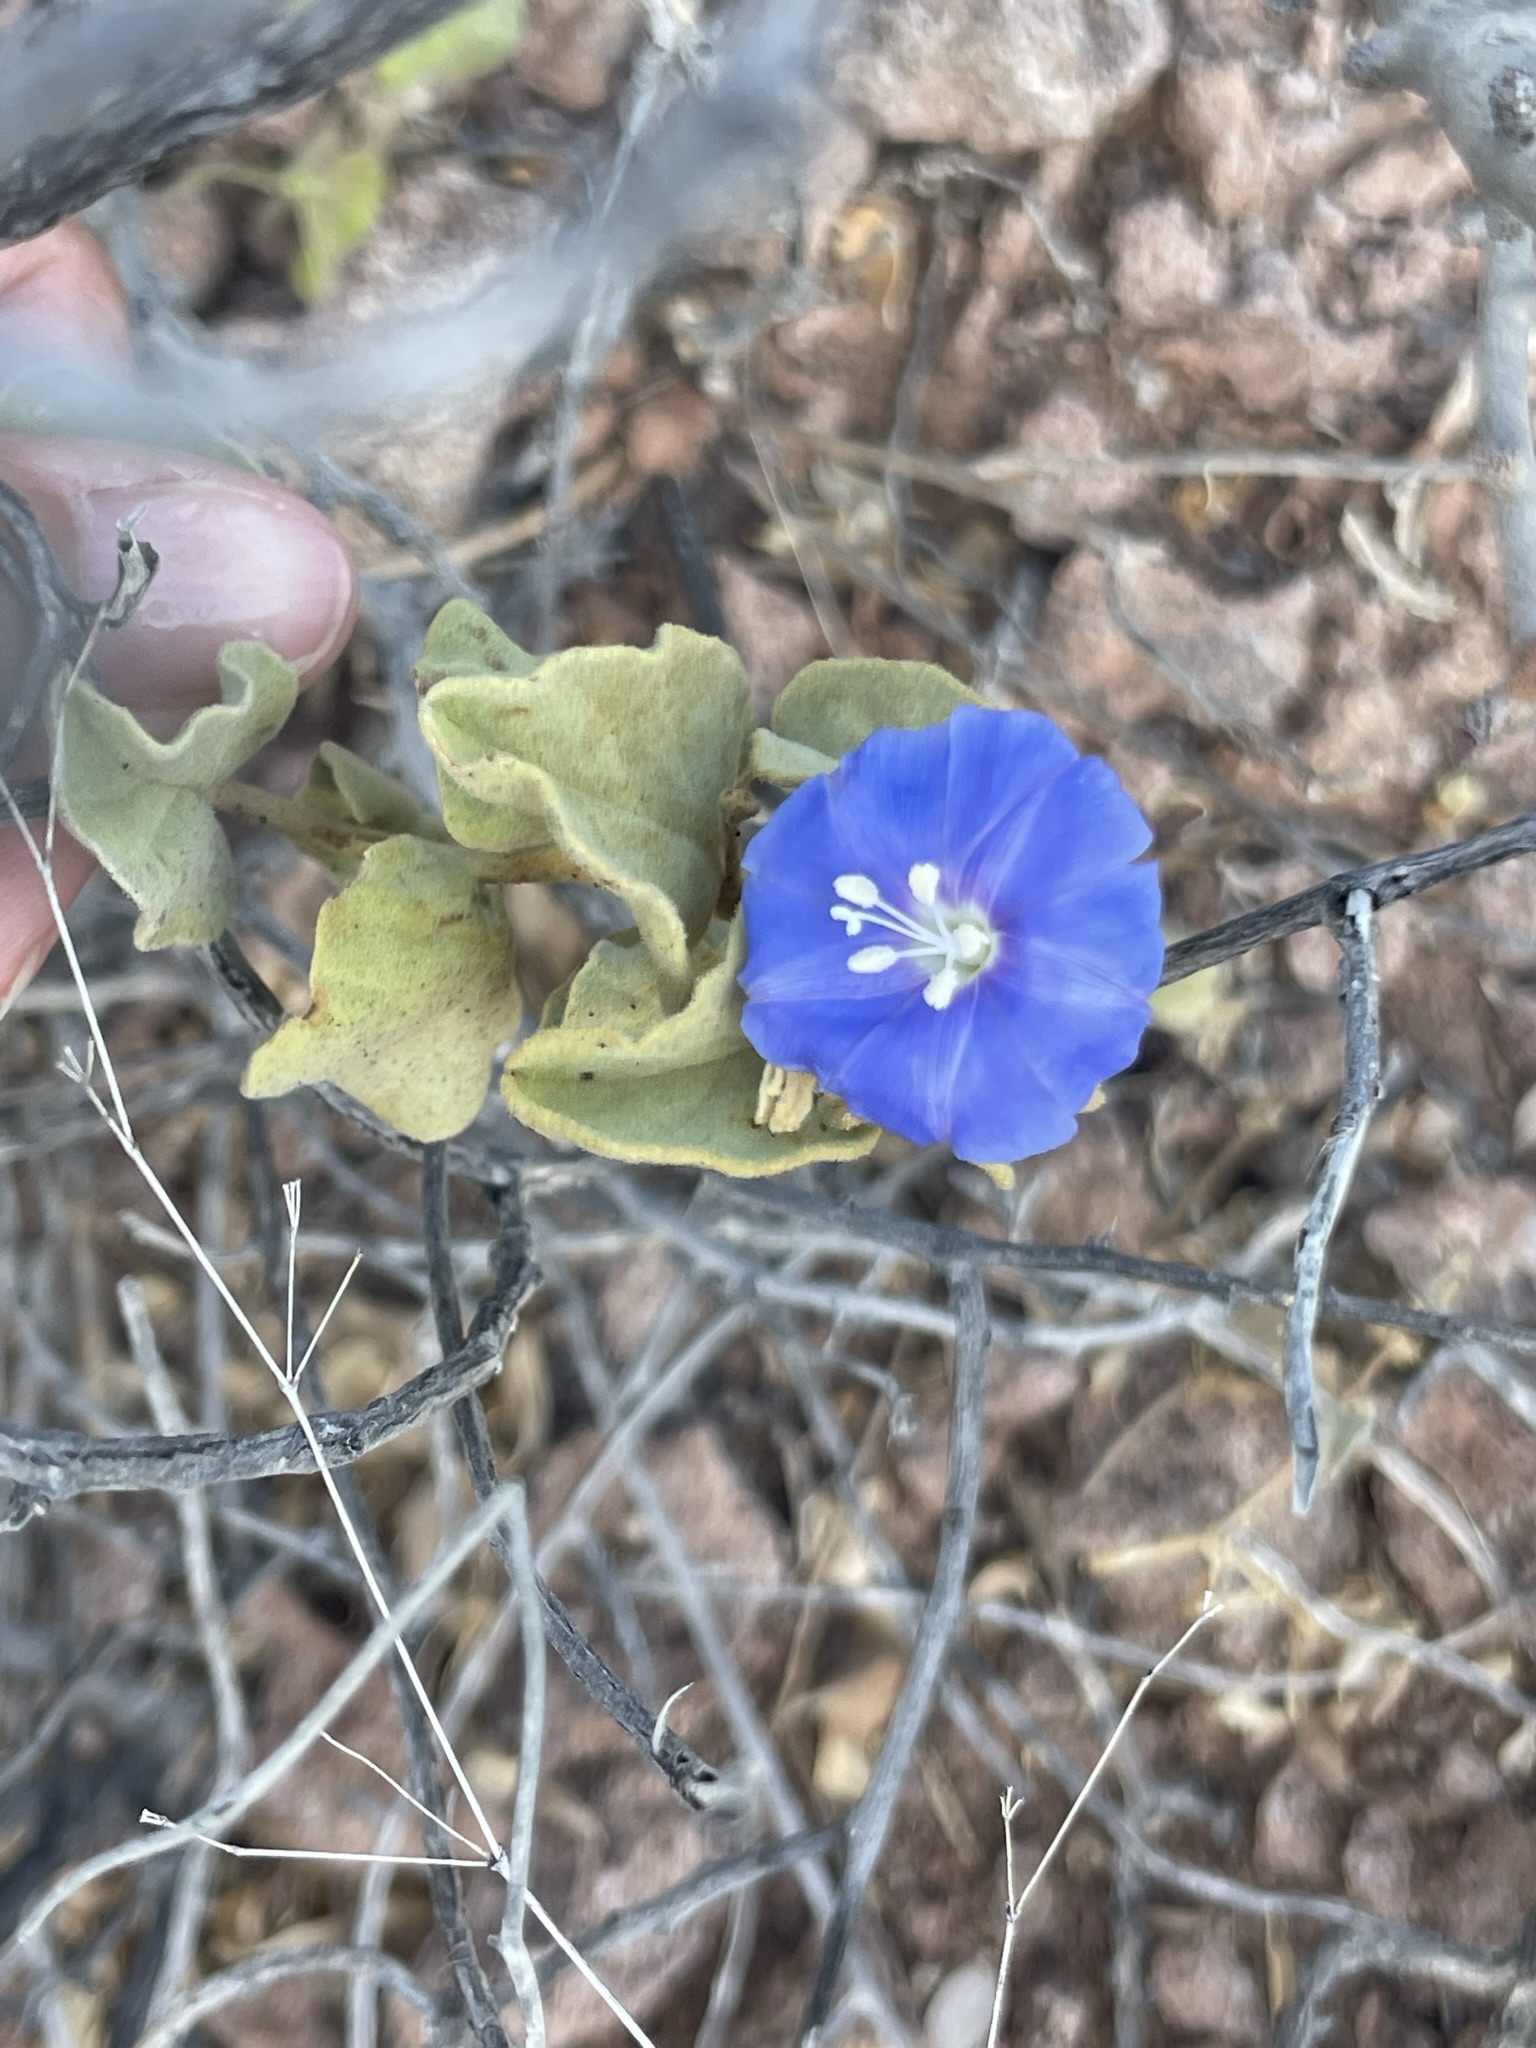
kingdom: Plantae
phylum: Tracheophyta
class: Magnoliopsida
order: Solanales
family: Convolvulaceae
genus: Jacquemontia
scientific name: Jacquemontia abutiloides
